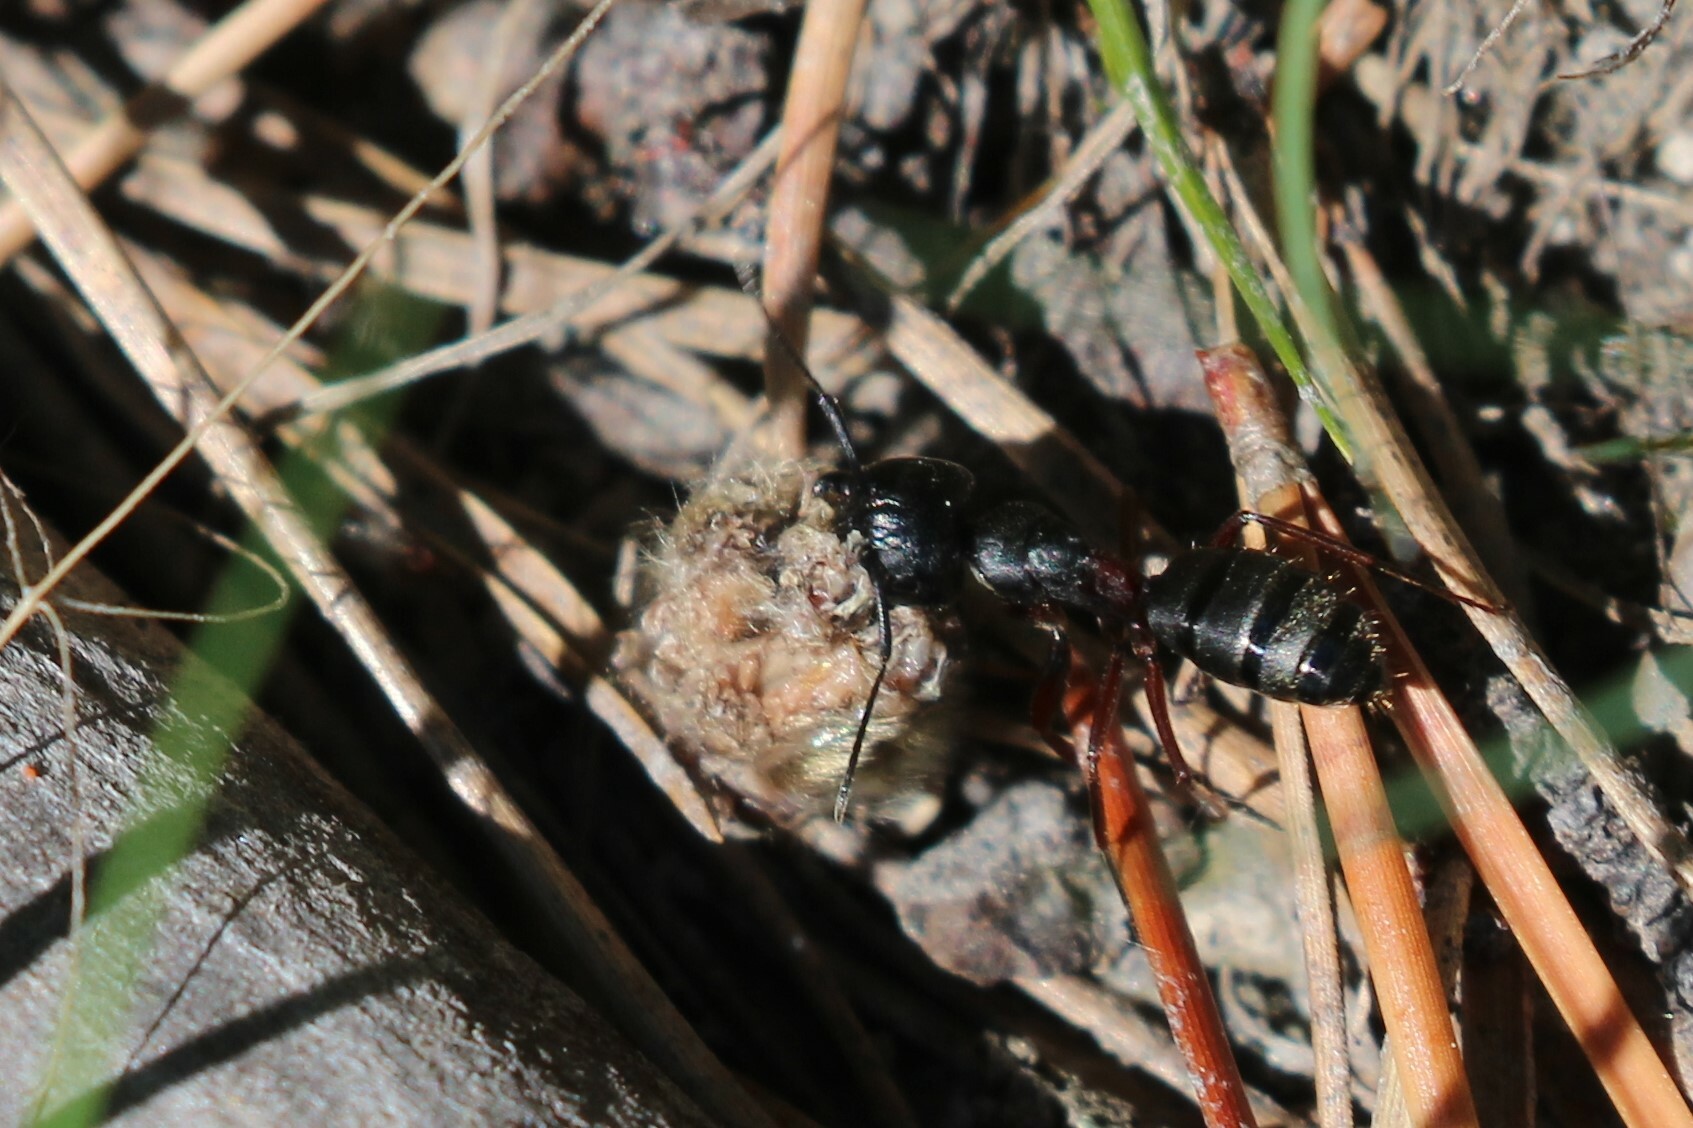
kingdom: Animalia
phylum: Arthropoda
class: Insecta
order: Hymenoptera
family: Formicidae
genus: Camponotus
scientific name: Camponotus herculeanus
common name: Hercules ant
